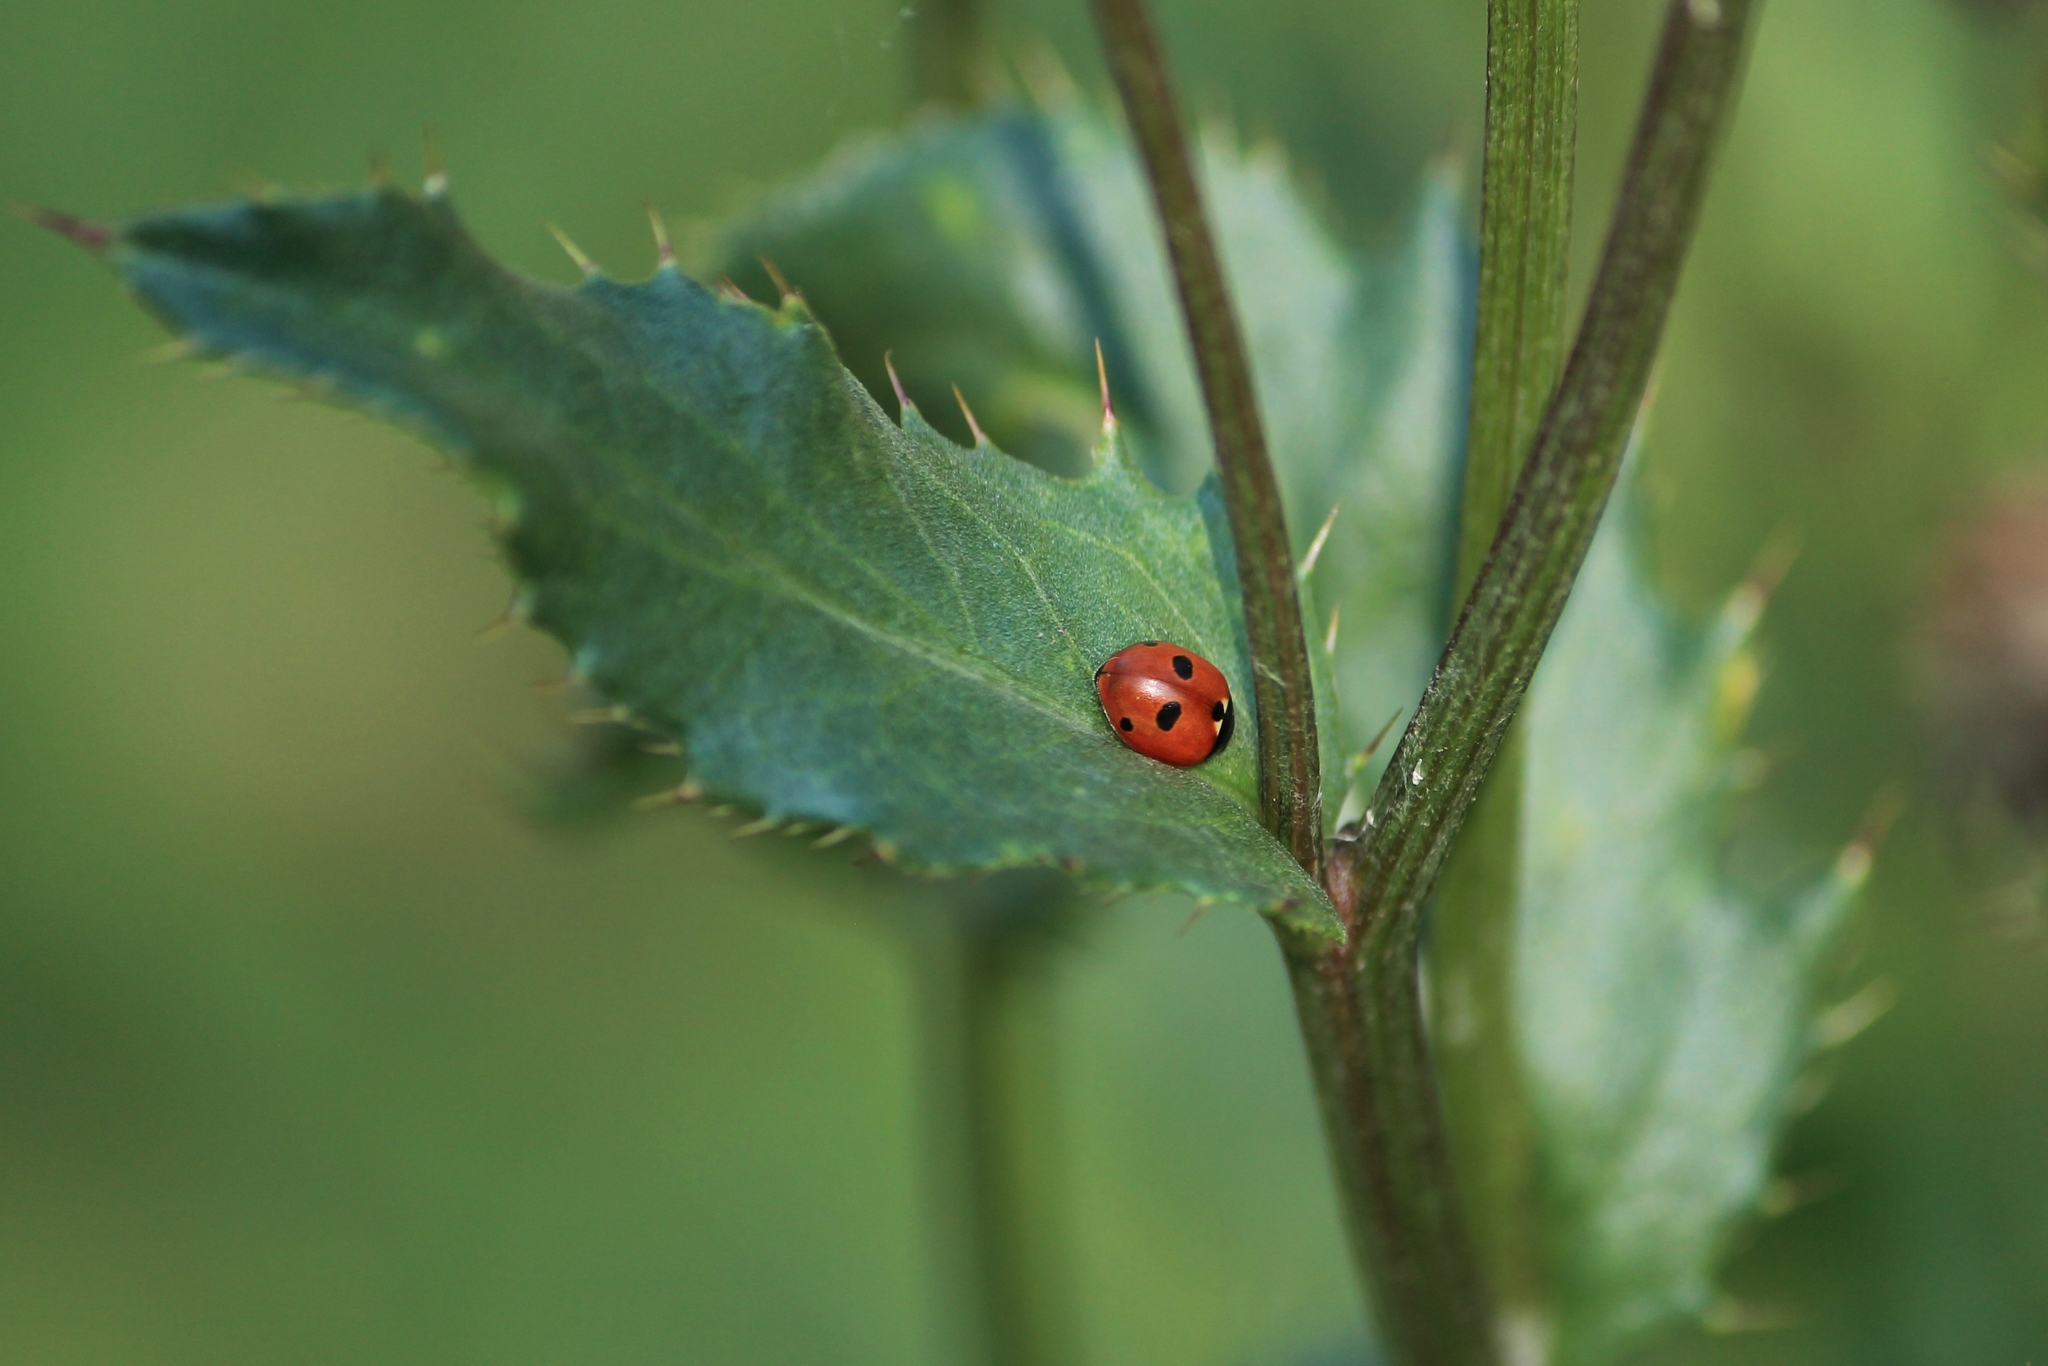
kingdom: Animalia
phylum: Arthropoda
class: Insecta
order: Coleoptera
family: Coccinellidae
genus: Coccinella
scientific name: Coccinella quinquepunctata
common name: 5-spot ladybird
